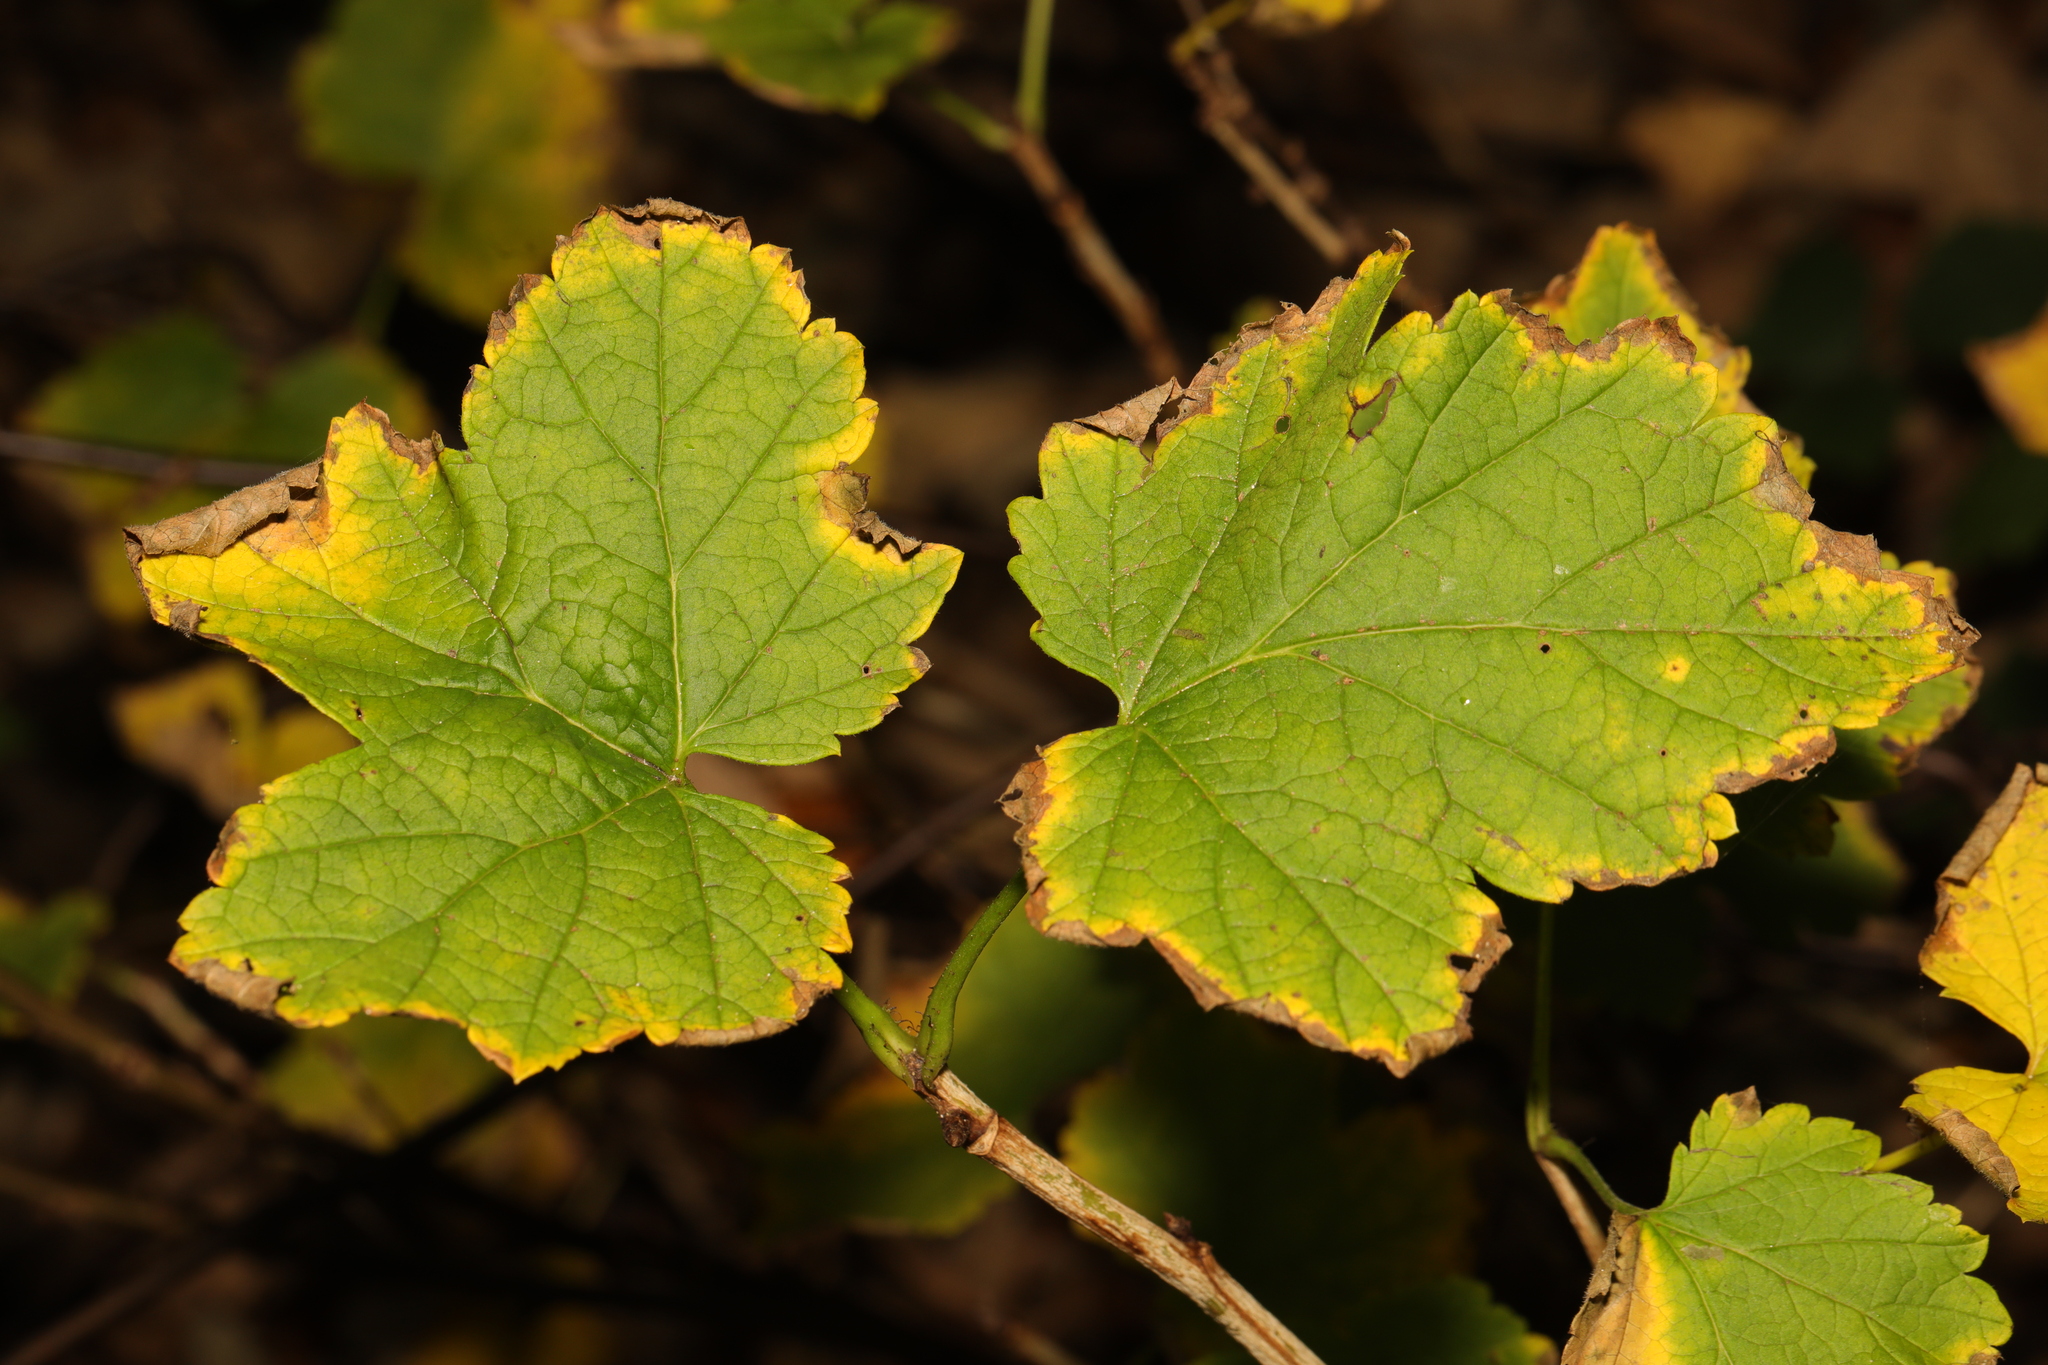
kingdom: Plantae
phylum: Tracheophyta
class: Magnoliopsida
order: Saxifragales
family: Grossulariaceae
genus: Ribes
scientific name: Ribes sanguineum
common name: Flowering currant
